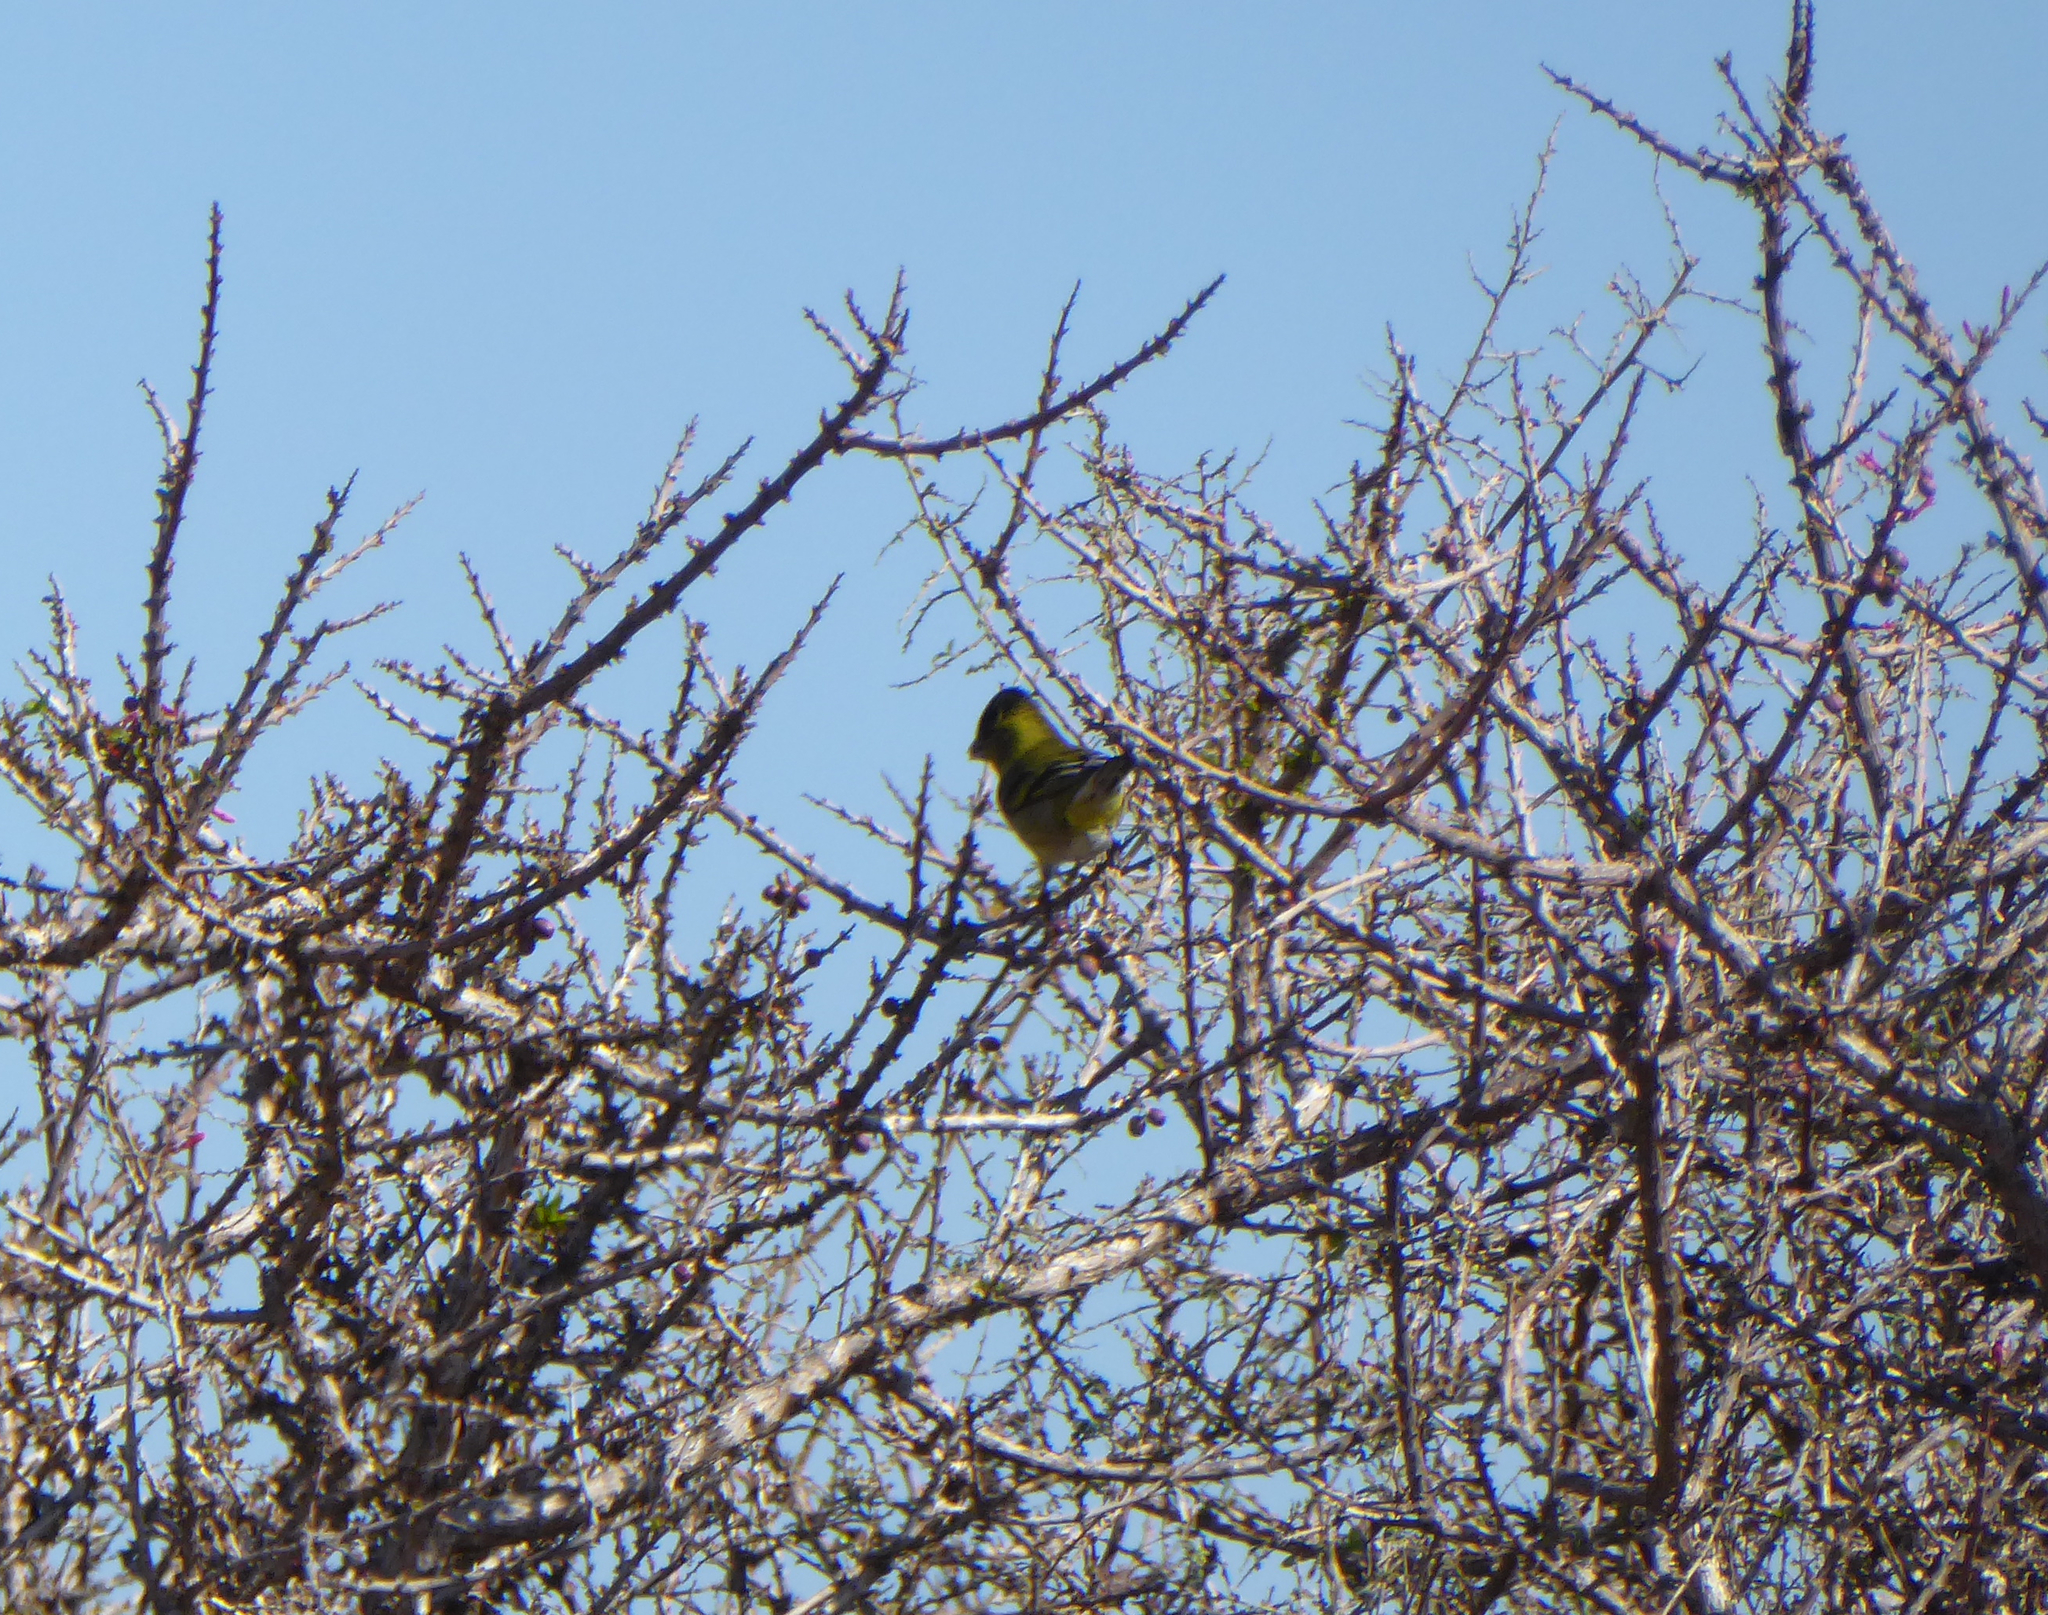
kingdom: Animalia
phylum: Chordata
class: Aves
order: Passeriformes
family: Fringillidae
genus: Spinus
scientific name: Spinus barbatus
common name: Black-chinned siskin
